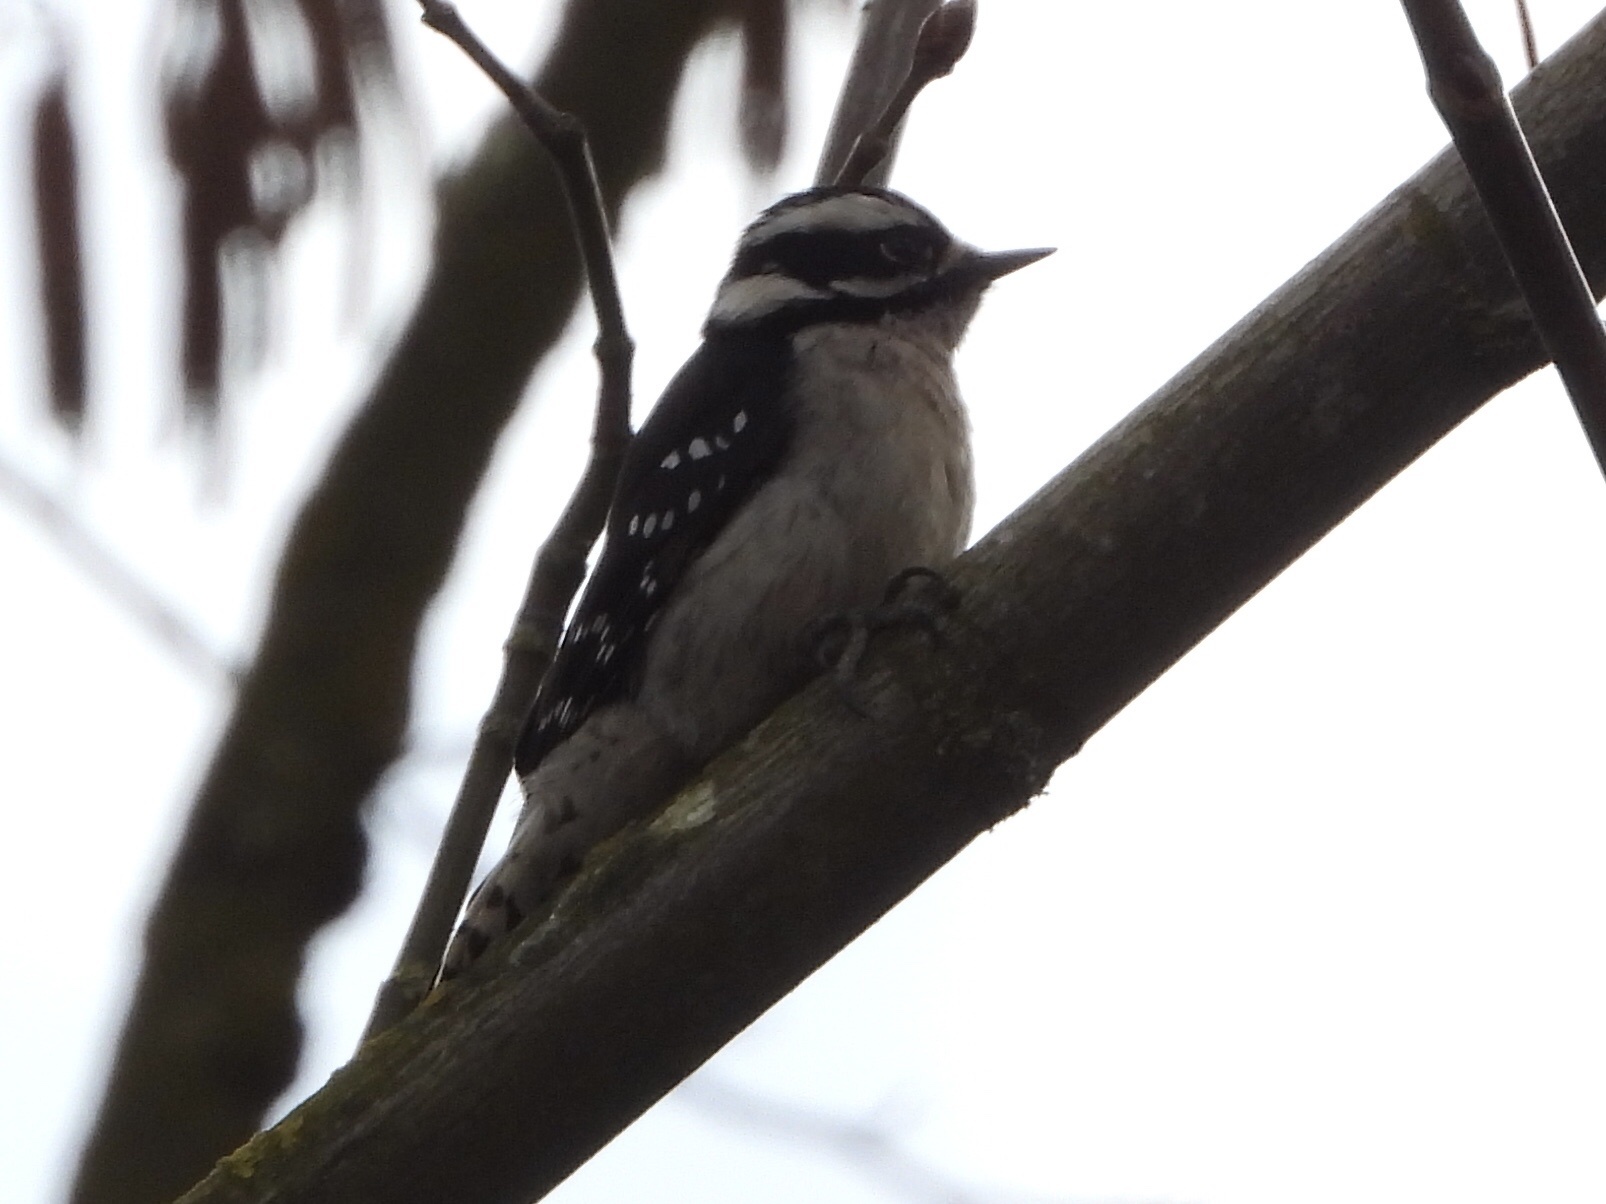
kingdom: Animalia
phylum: Chordata
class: Aves
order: Piciformes
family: Picidae
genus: Dryobates
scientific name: Dryobates pubescens
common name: Downy woodpecker
